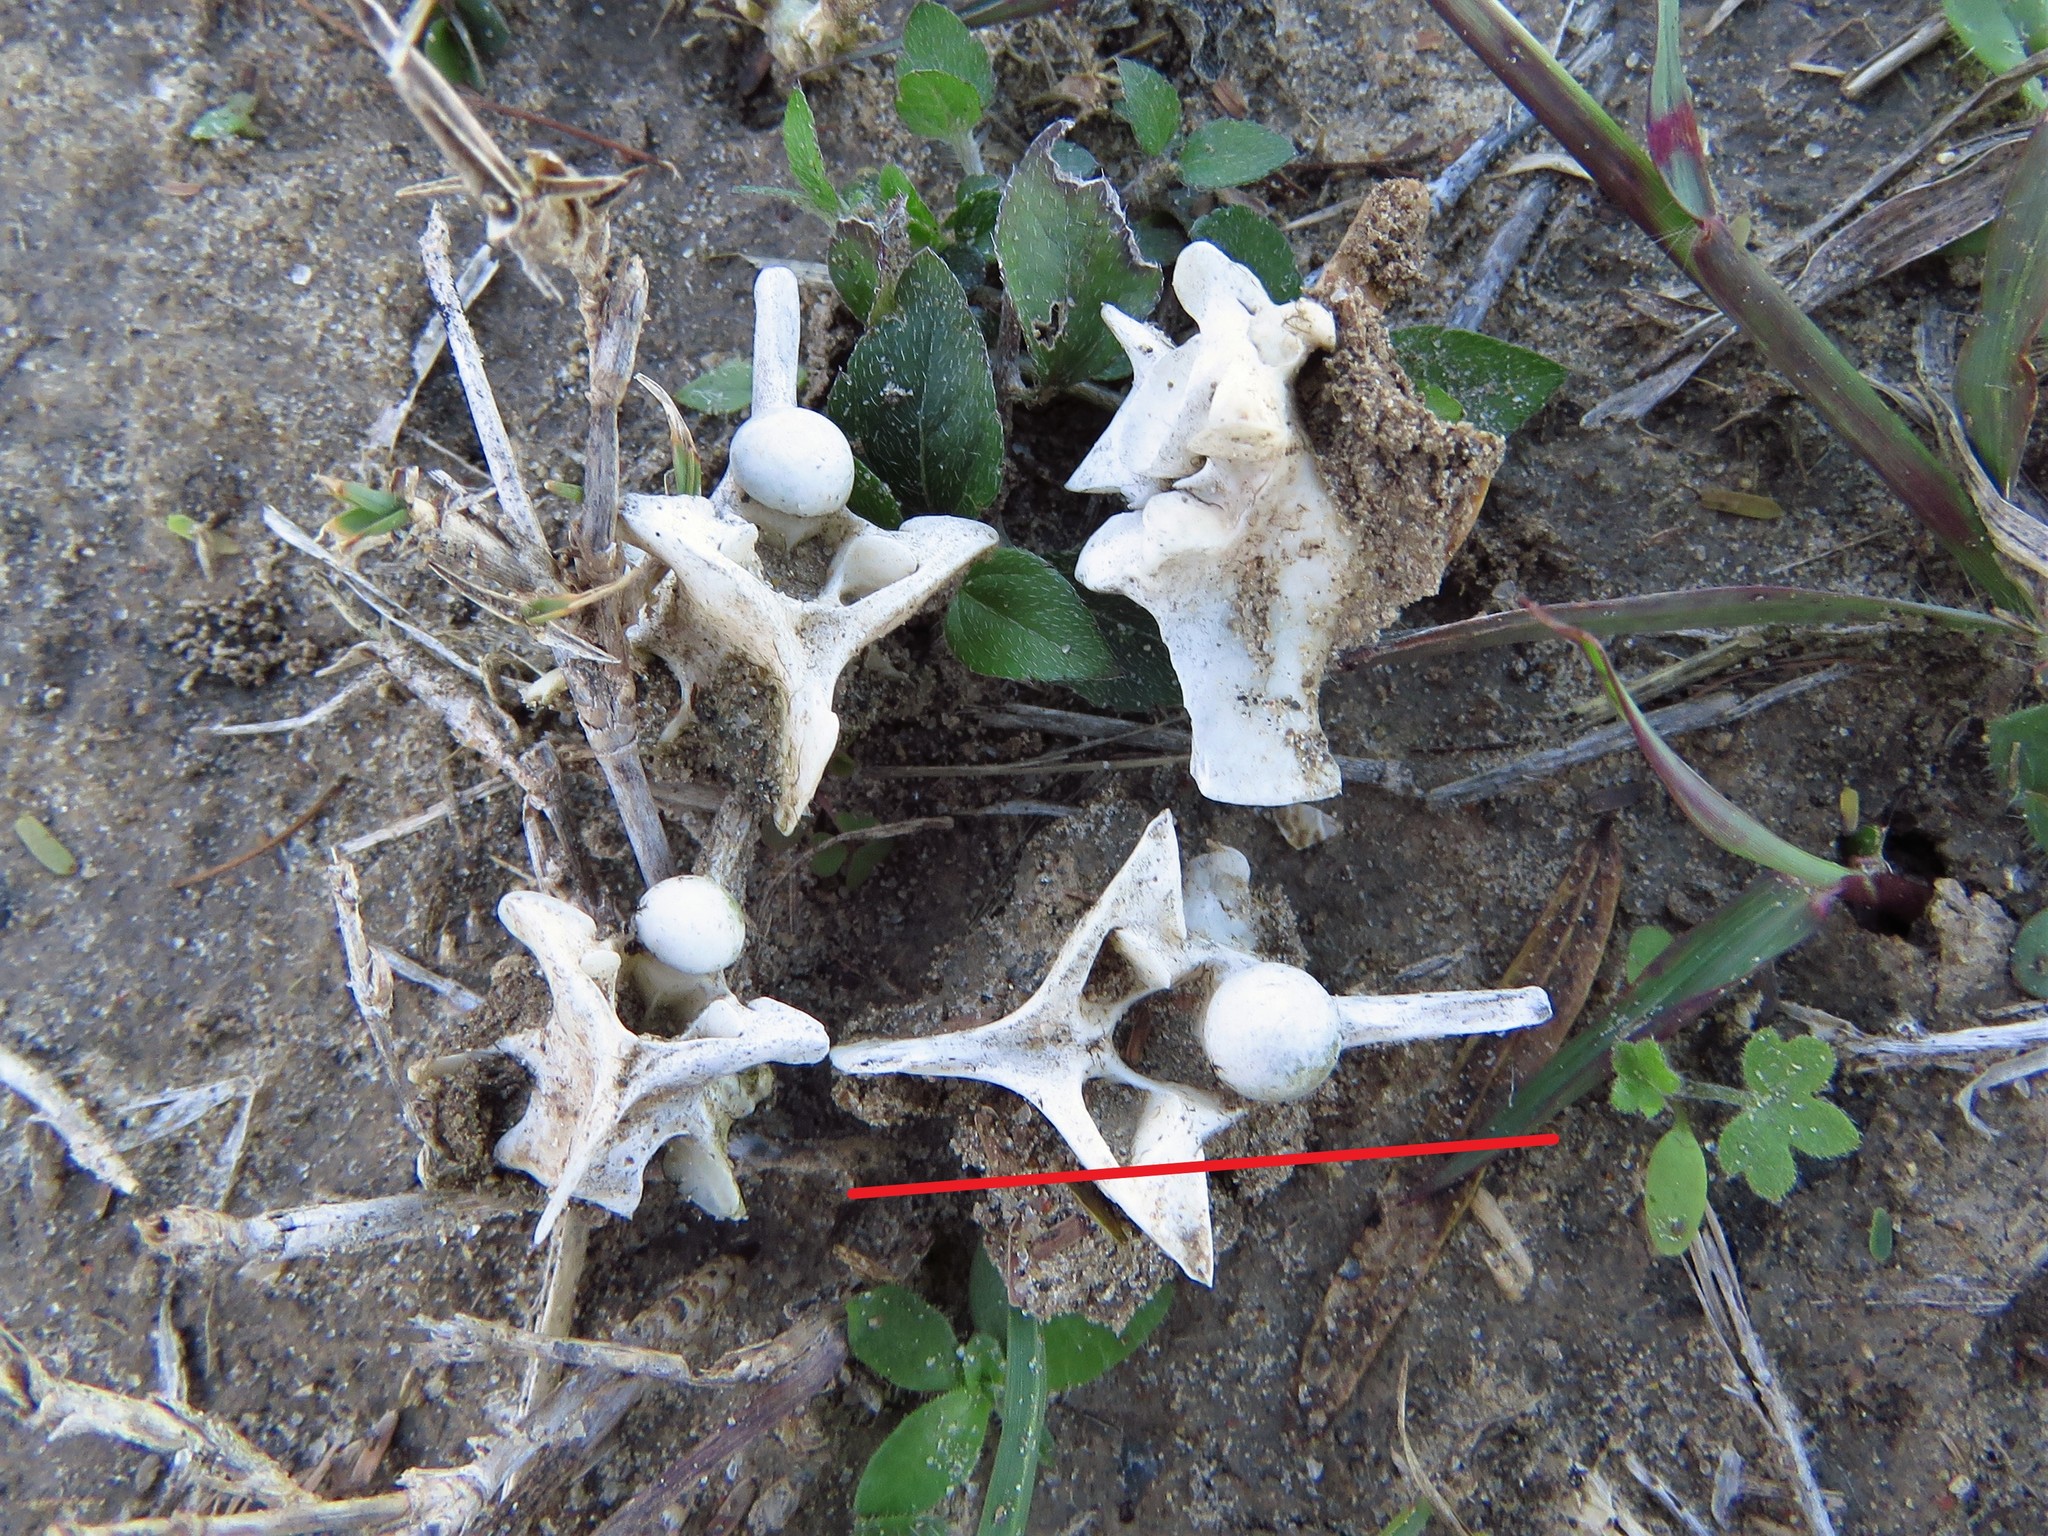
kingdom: Animalia
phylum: Chordata
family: Crotalidae
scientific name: Crotalidae
